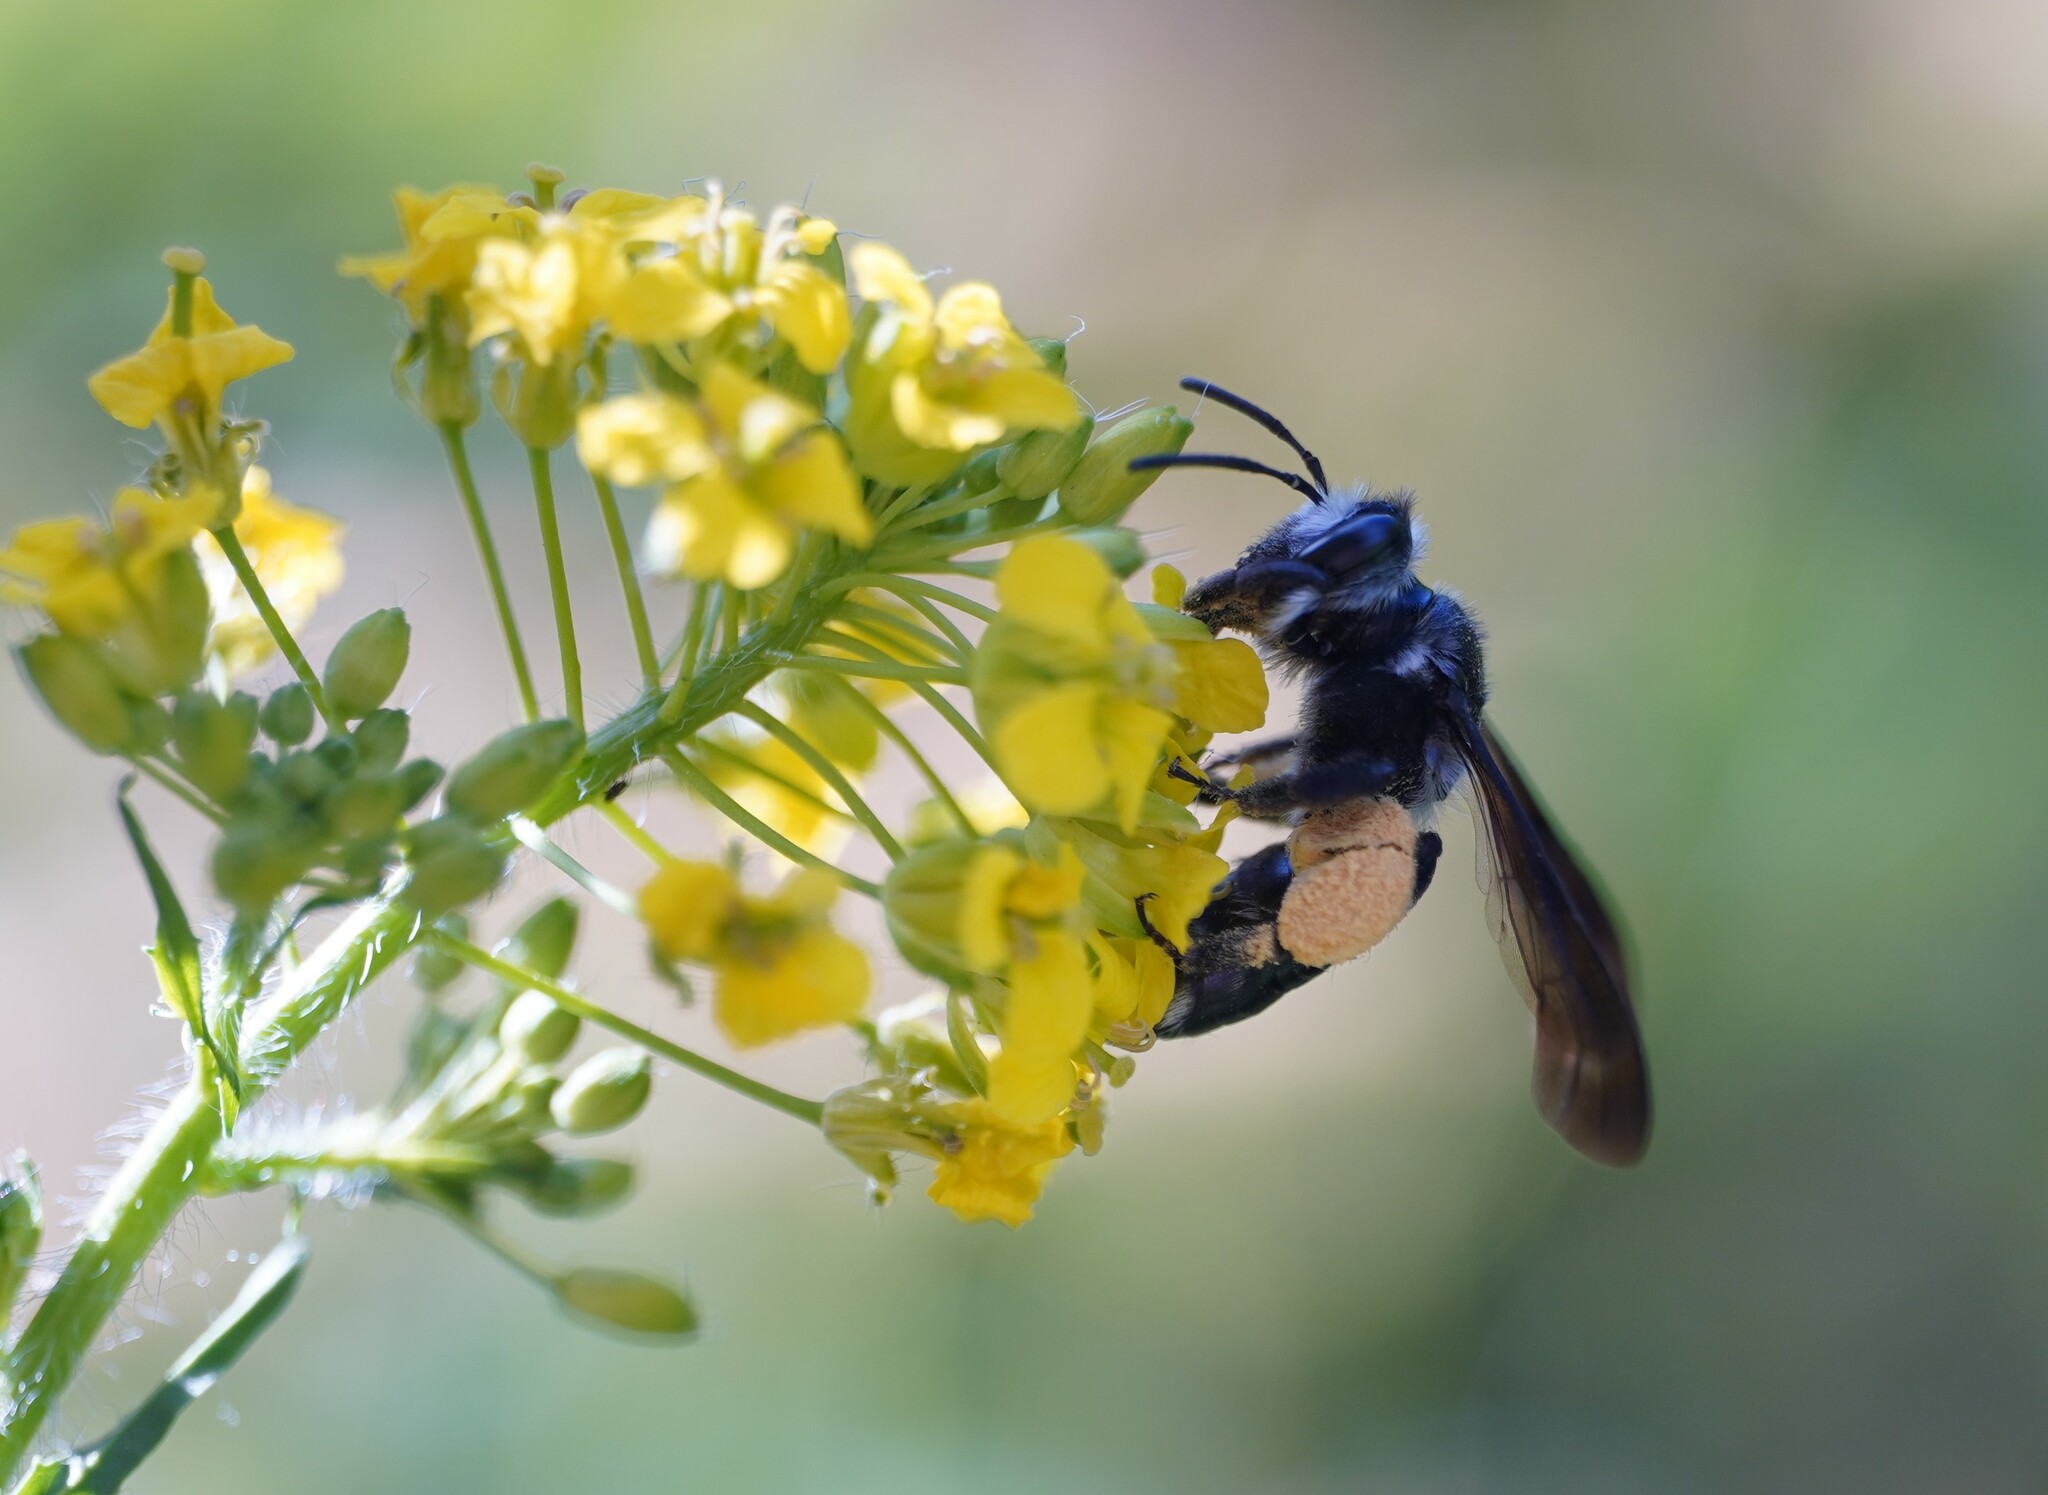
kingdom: Animalia
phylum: Arthropoda
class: Insecta
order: Hymenoptera
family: Andrenidae
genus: Andrena
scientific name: Andrena agilissima
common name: Violet-winged mining bee
